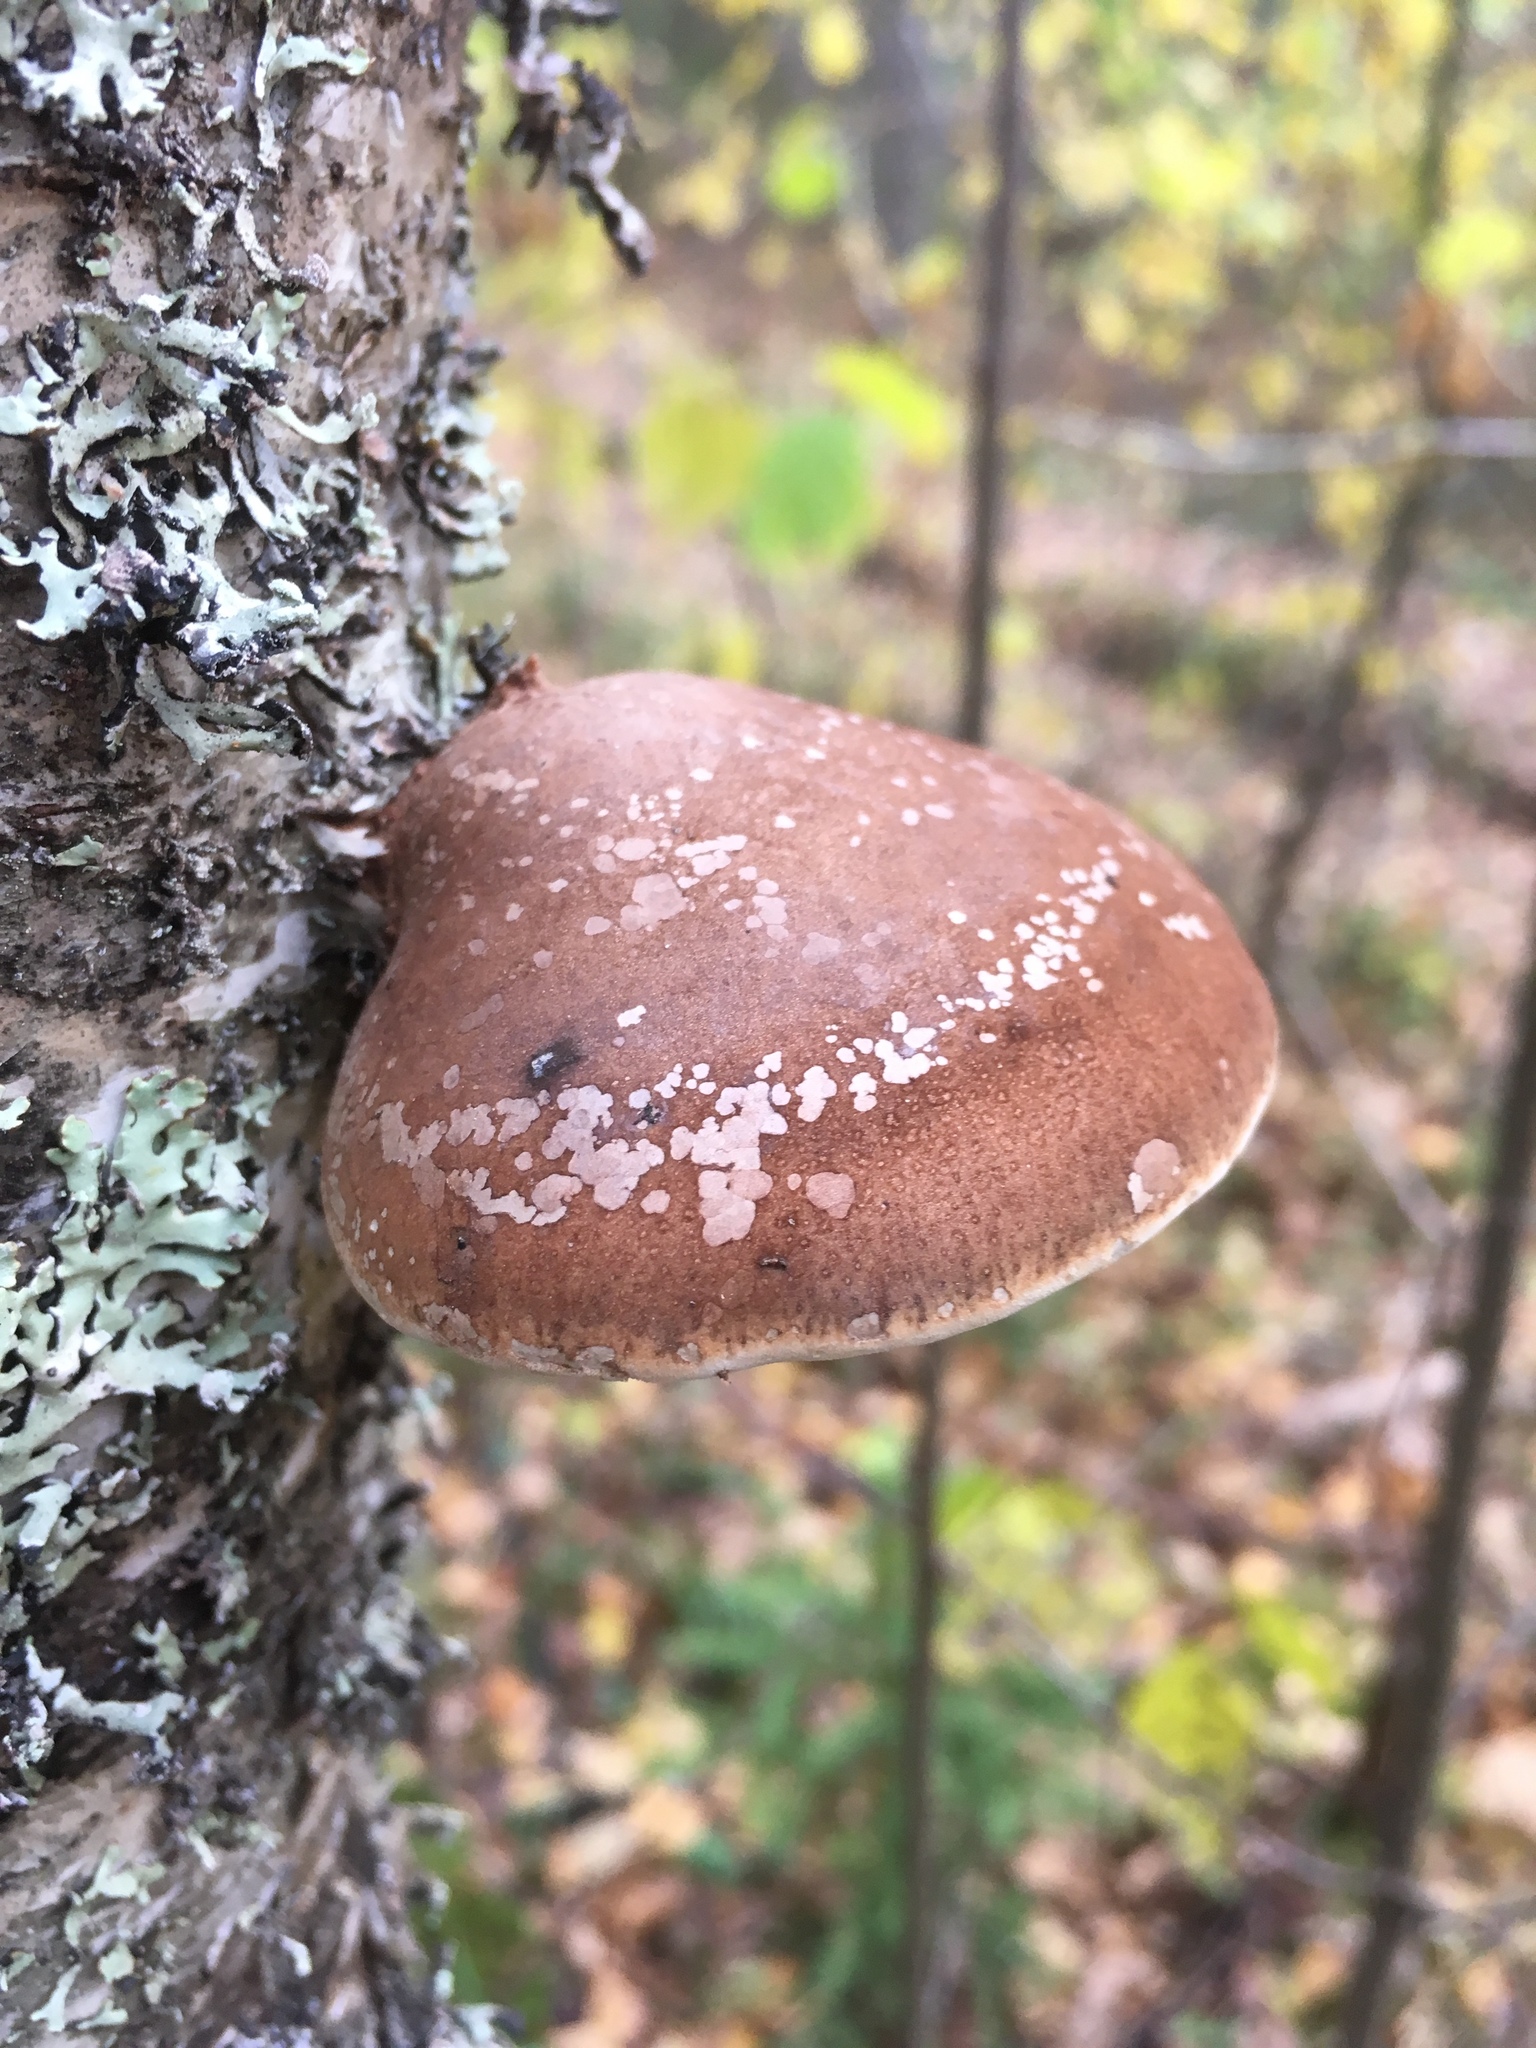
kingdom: Fungi
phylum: Basidiomycota
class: Agaricomycetes
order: Polyporales
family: Fomitopsidaceae
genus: Fomitopsis
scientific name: Fomitopsis betulina
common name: Birch polypore
